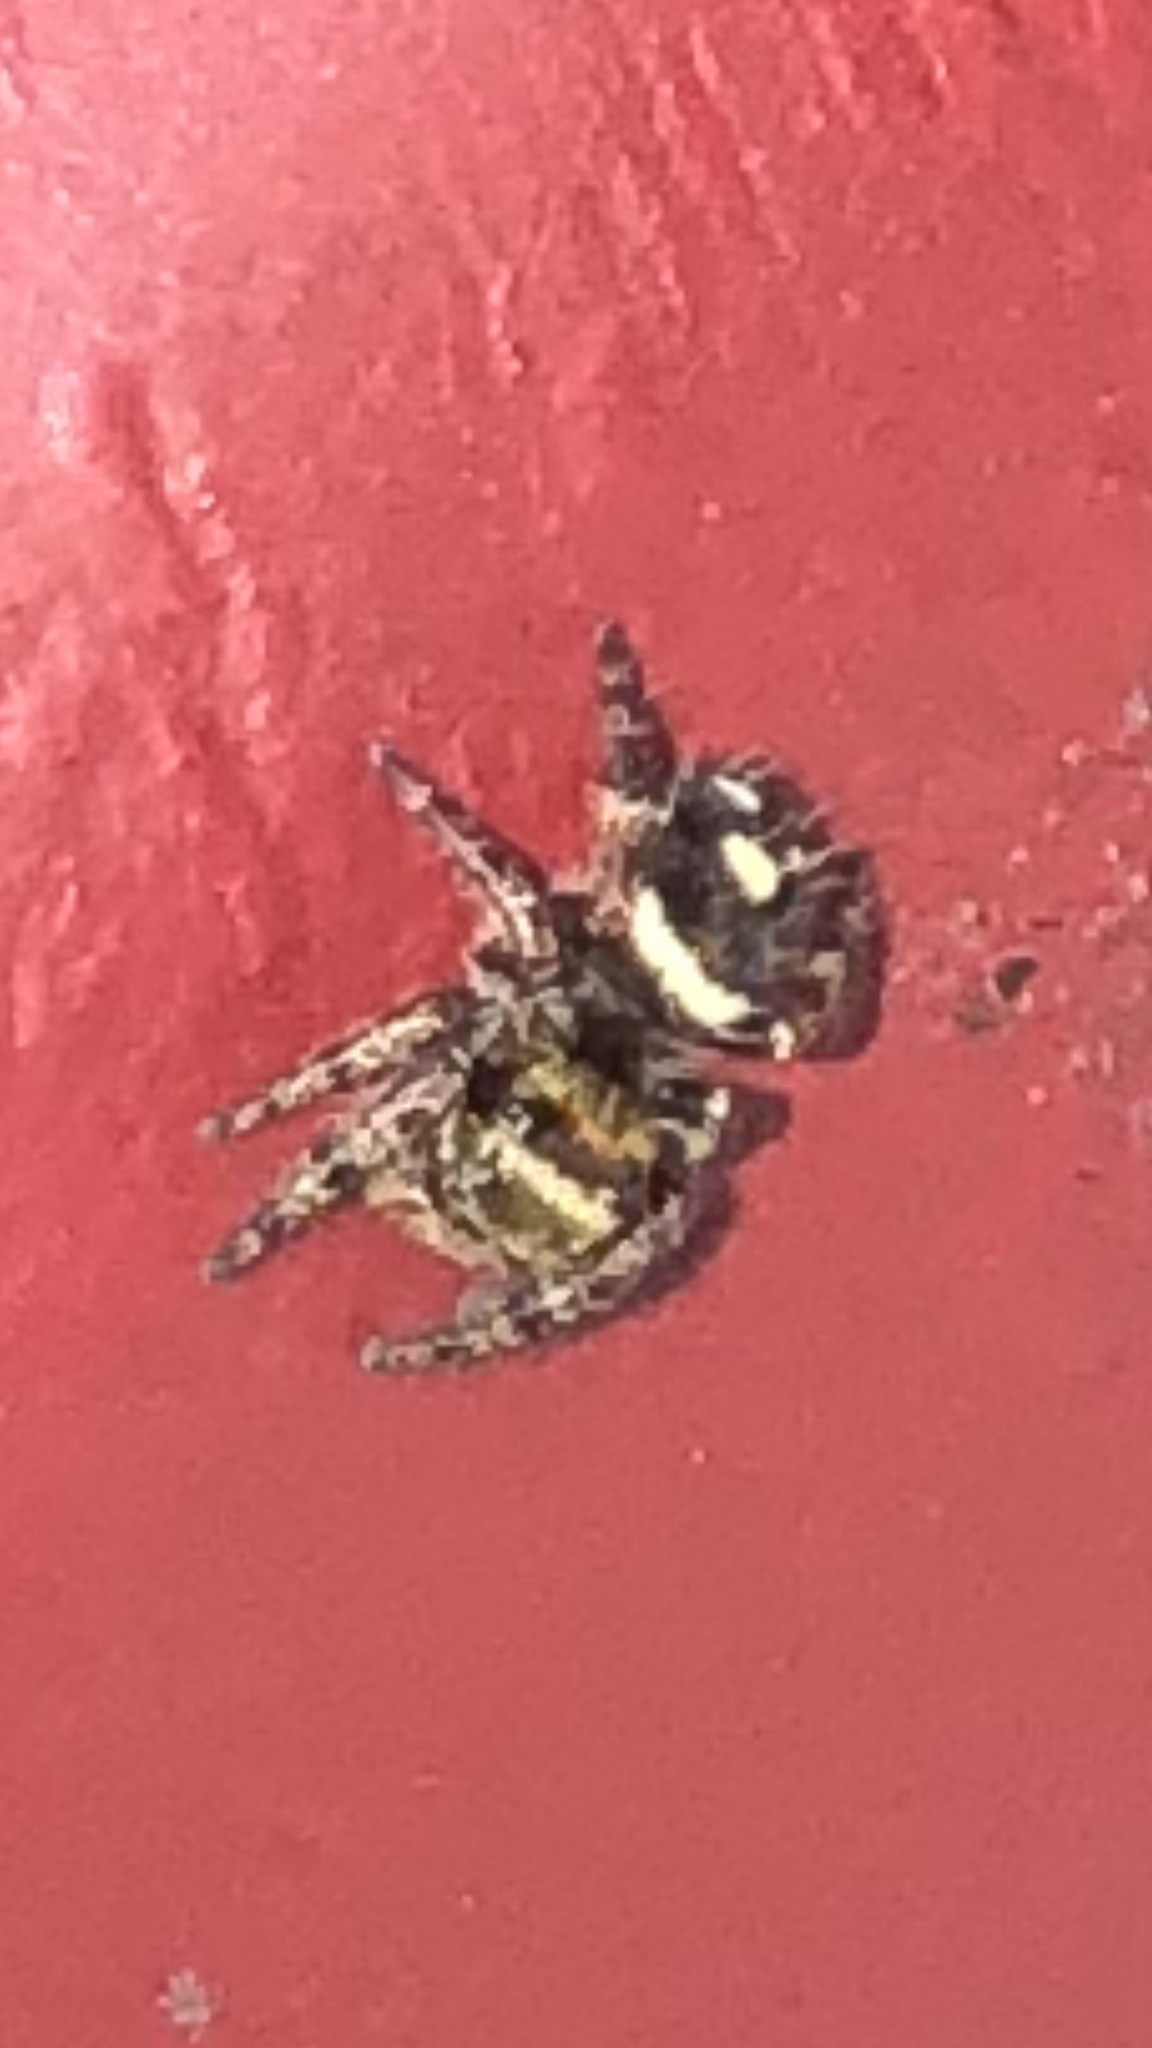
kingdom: Animalia
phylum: Arthropoda
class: Arachnida
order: Araneae
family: Salticidae
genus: Phidippus
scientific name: Phidippus audax
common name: Bold jumper
